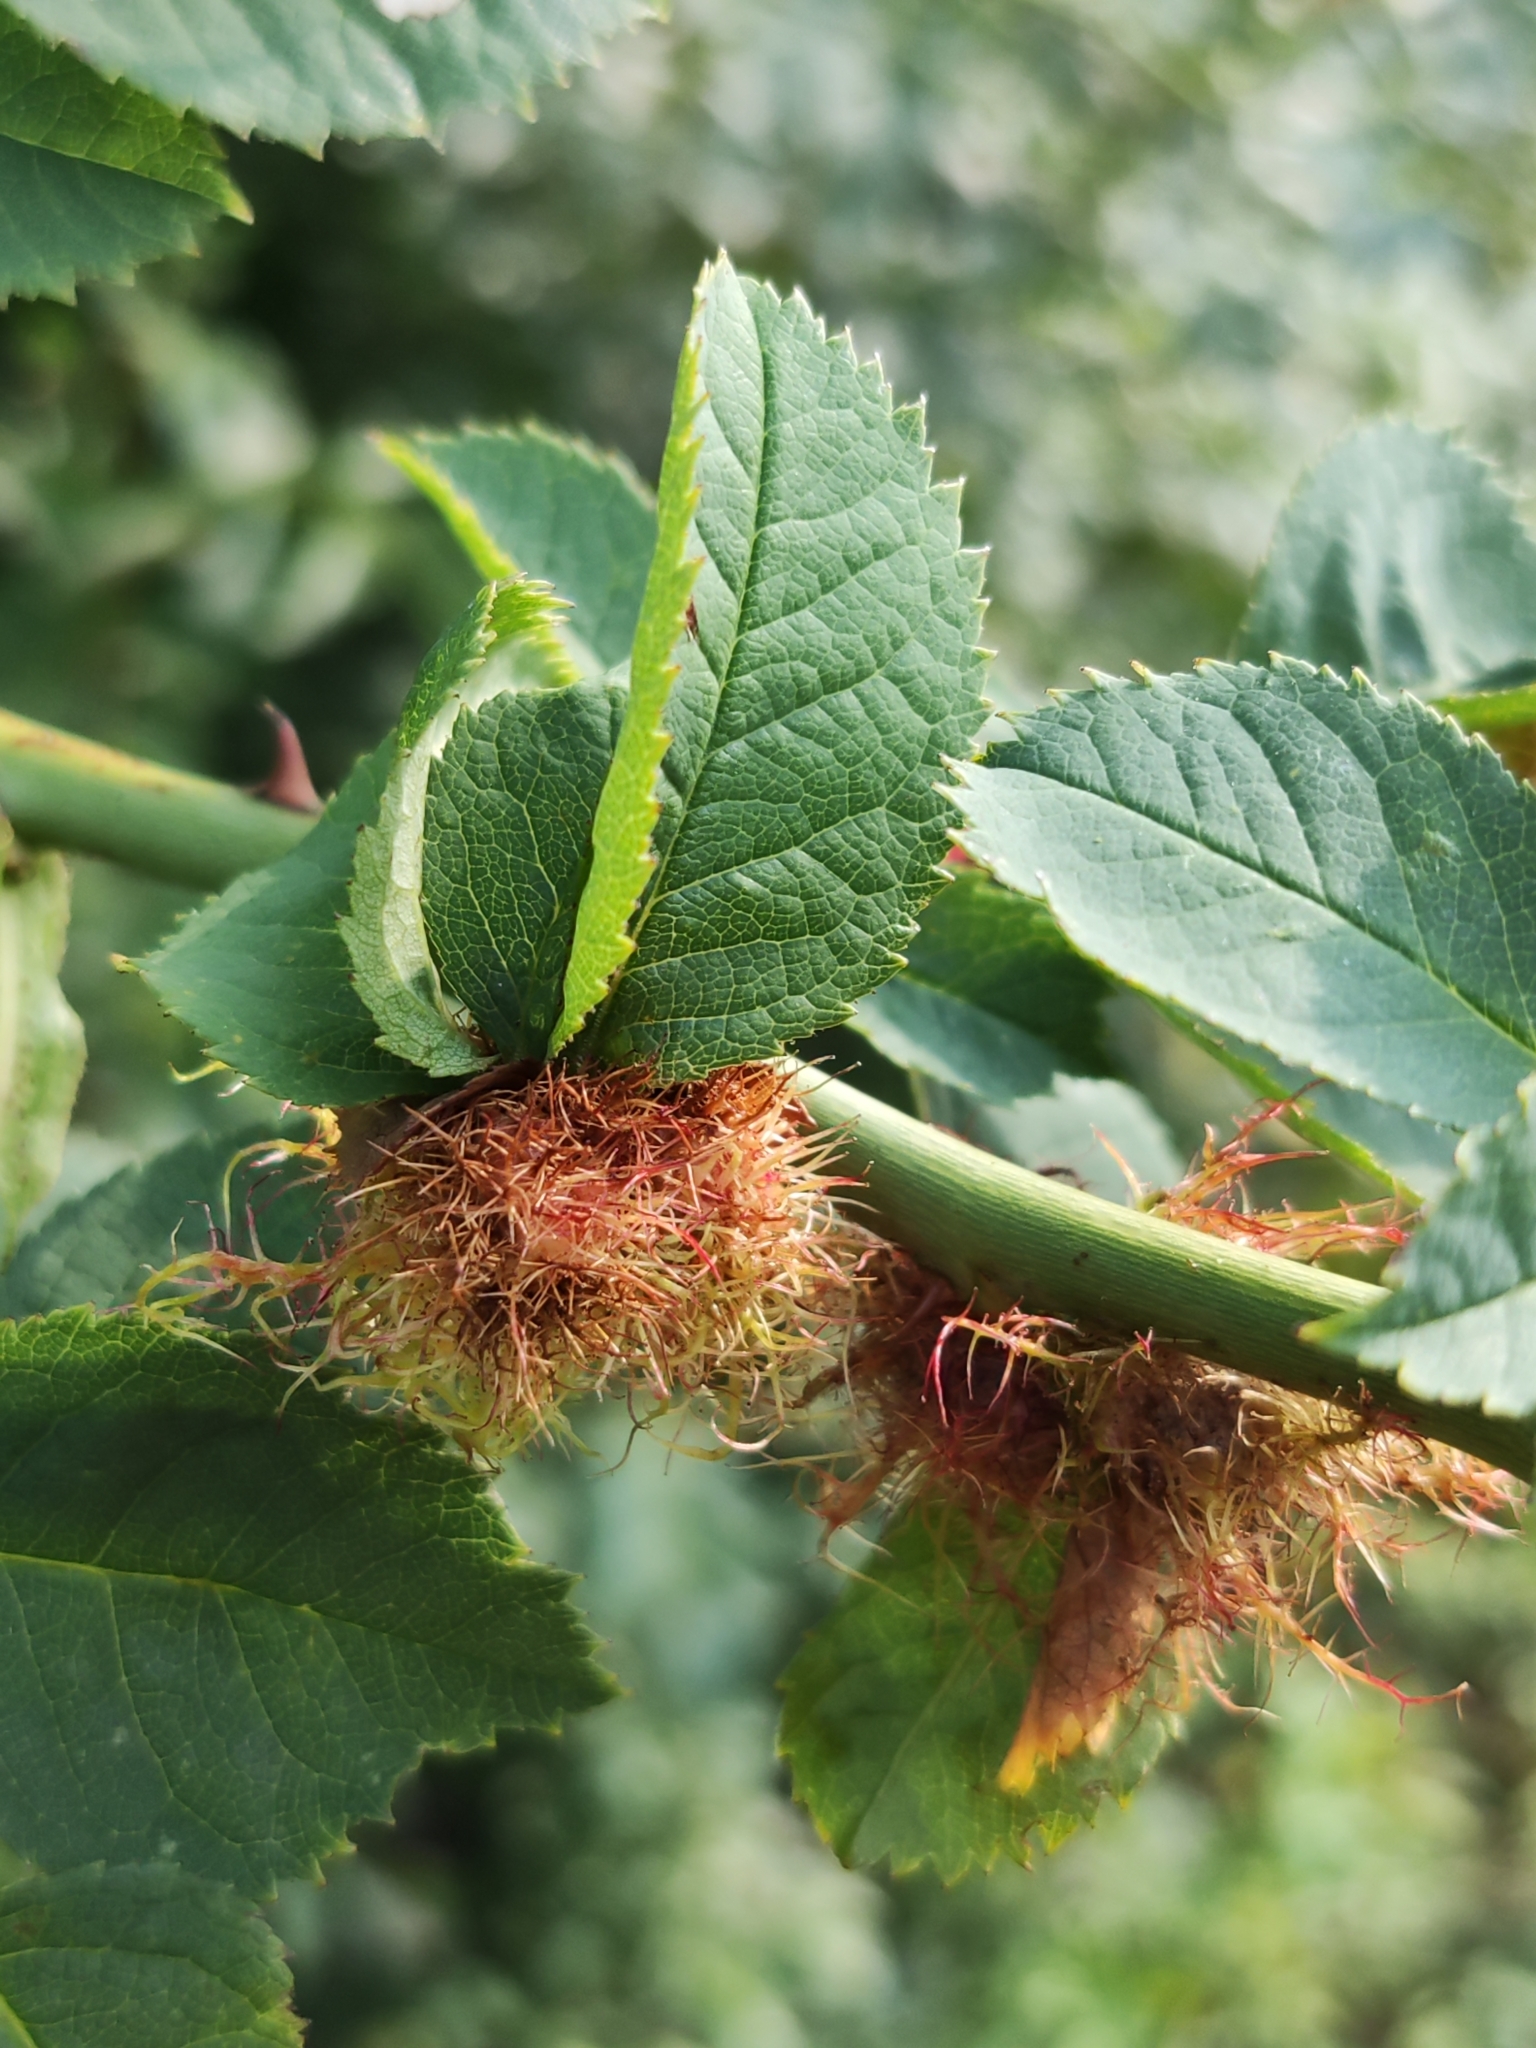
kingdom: Animalia
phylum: Arthropoda
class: Insecta
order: Hymenoptera
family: Cynipidae
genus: Diplolepis
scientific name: Diplolepis rosae
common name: Bedeguar gall
